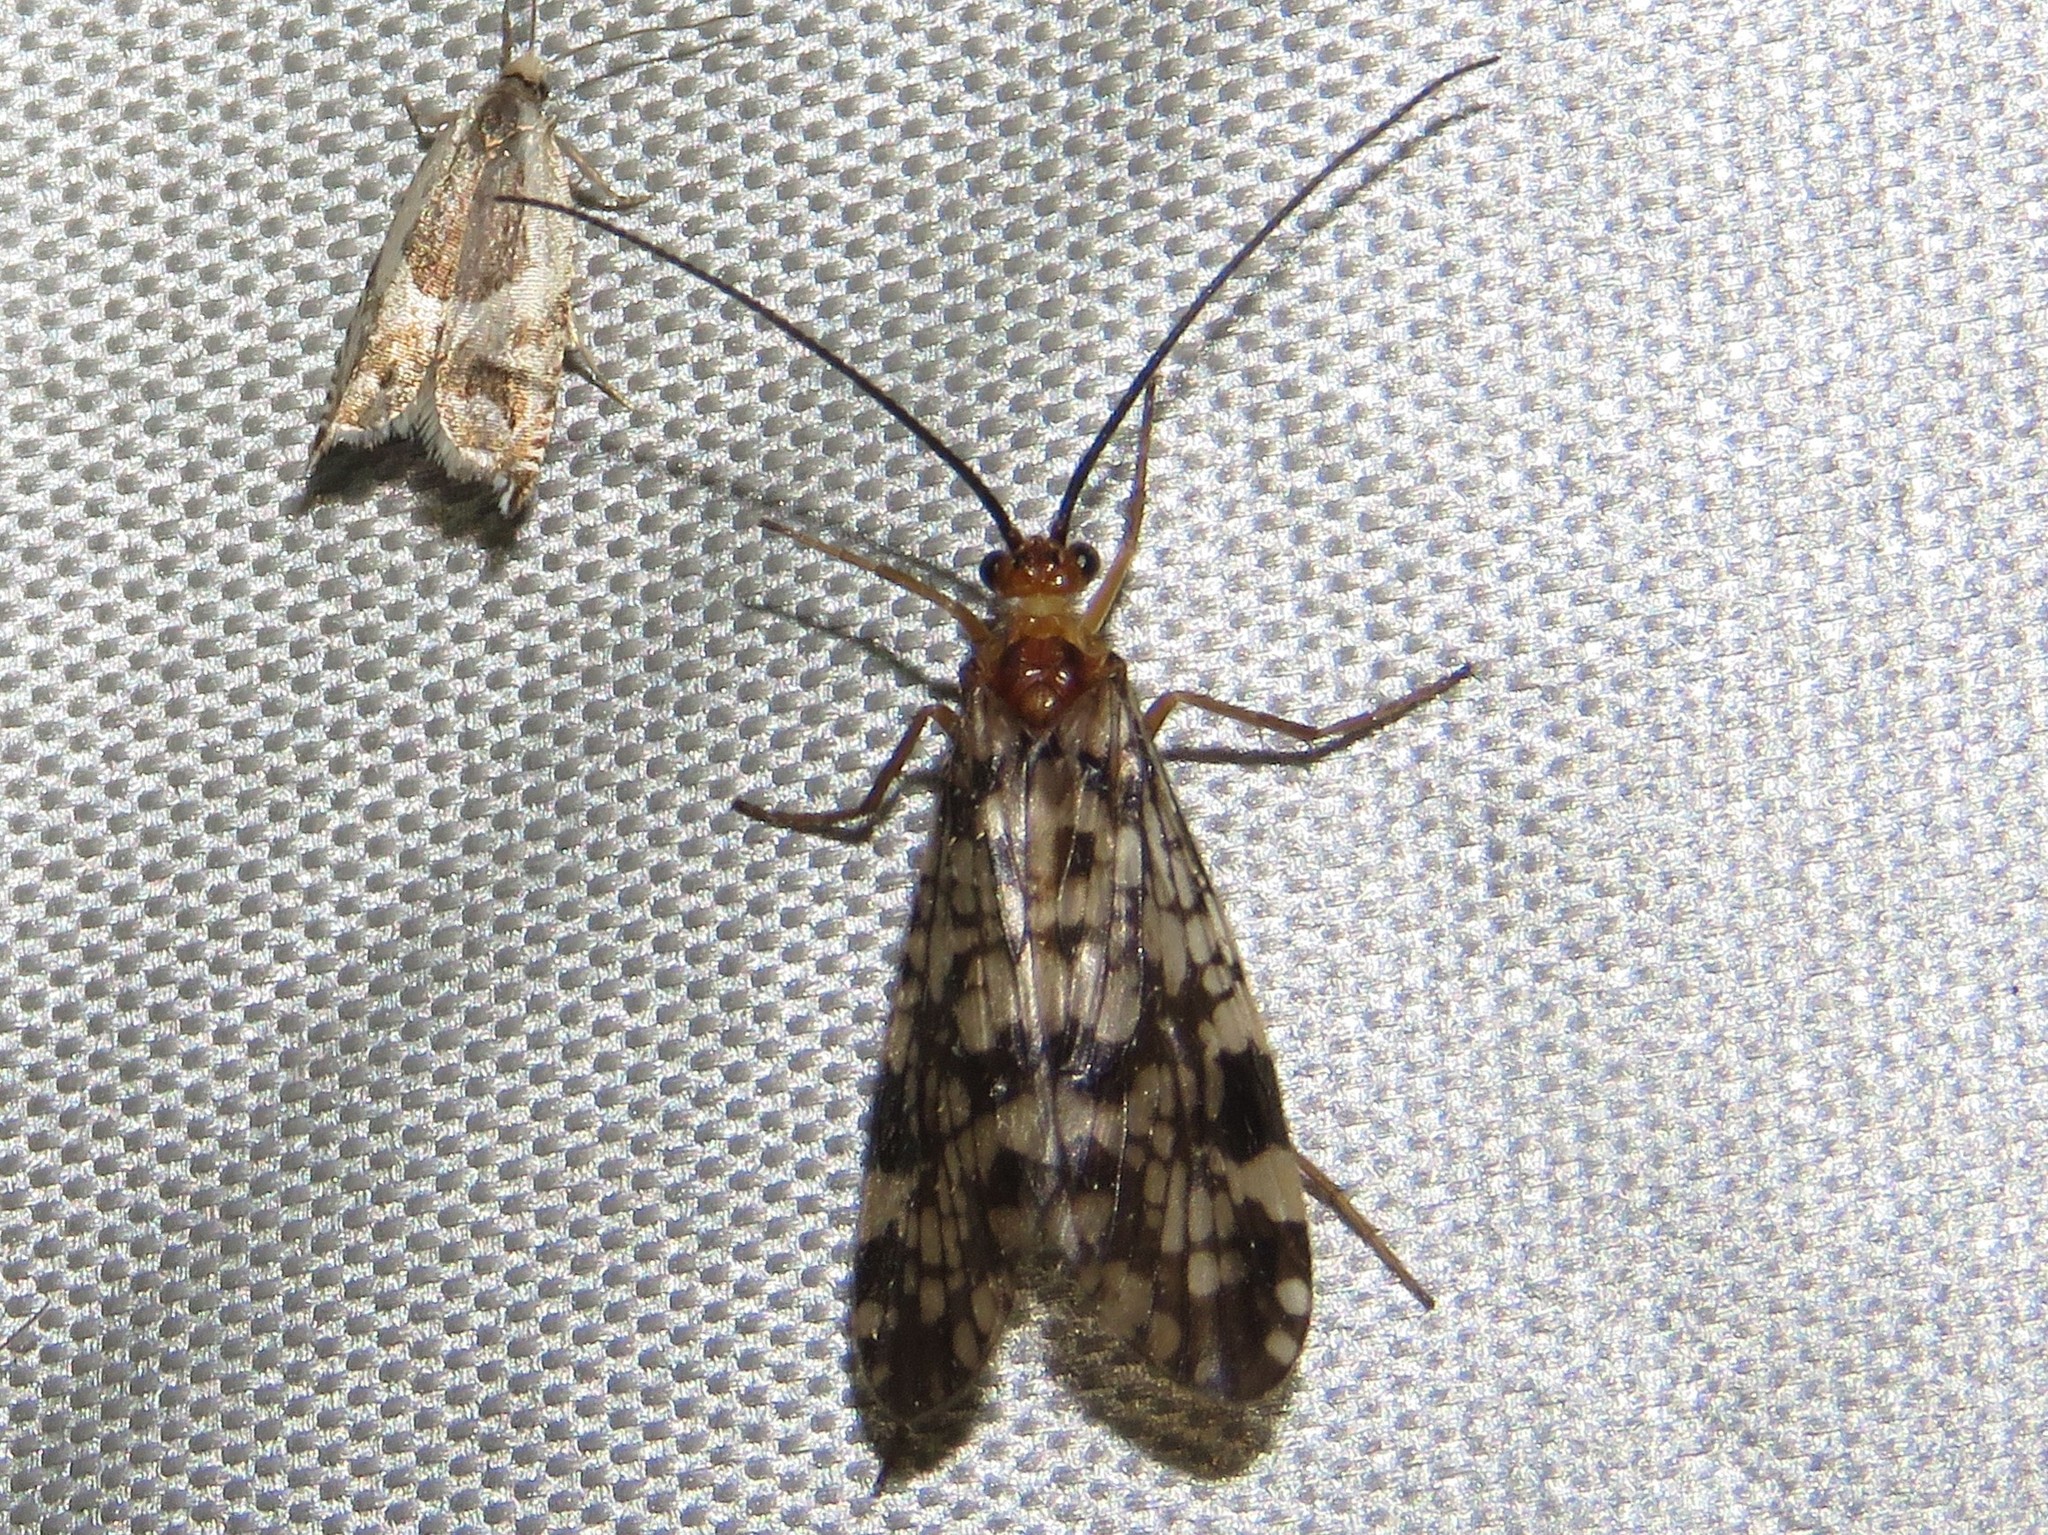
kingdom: Animalia
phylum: Arthropoda
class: Insecta
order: Trichoptera
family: Phryganeidae
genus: Banksiola
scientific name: Banksiola dossuaria
